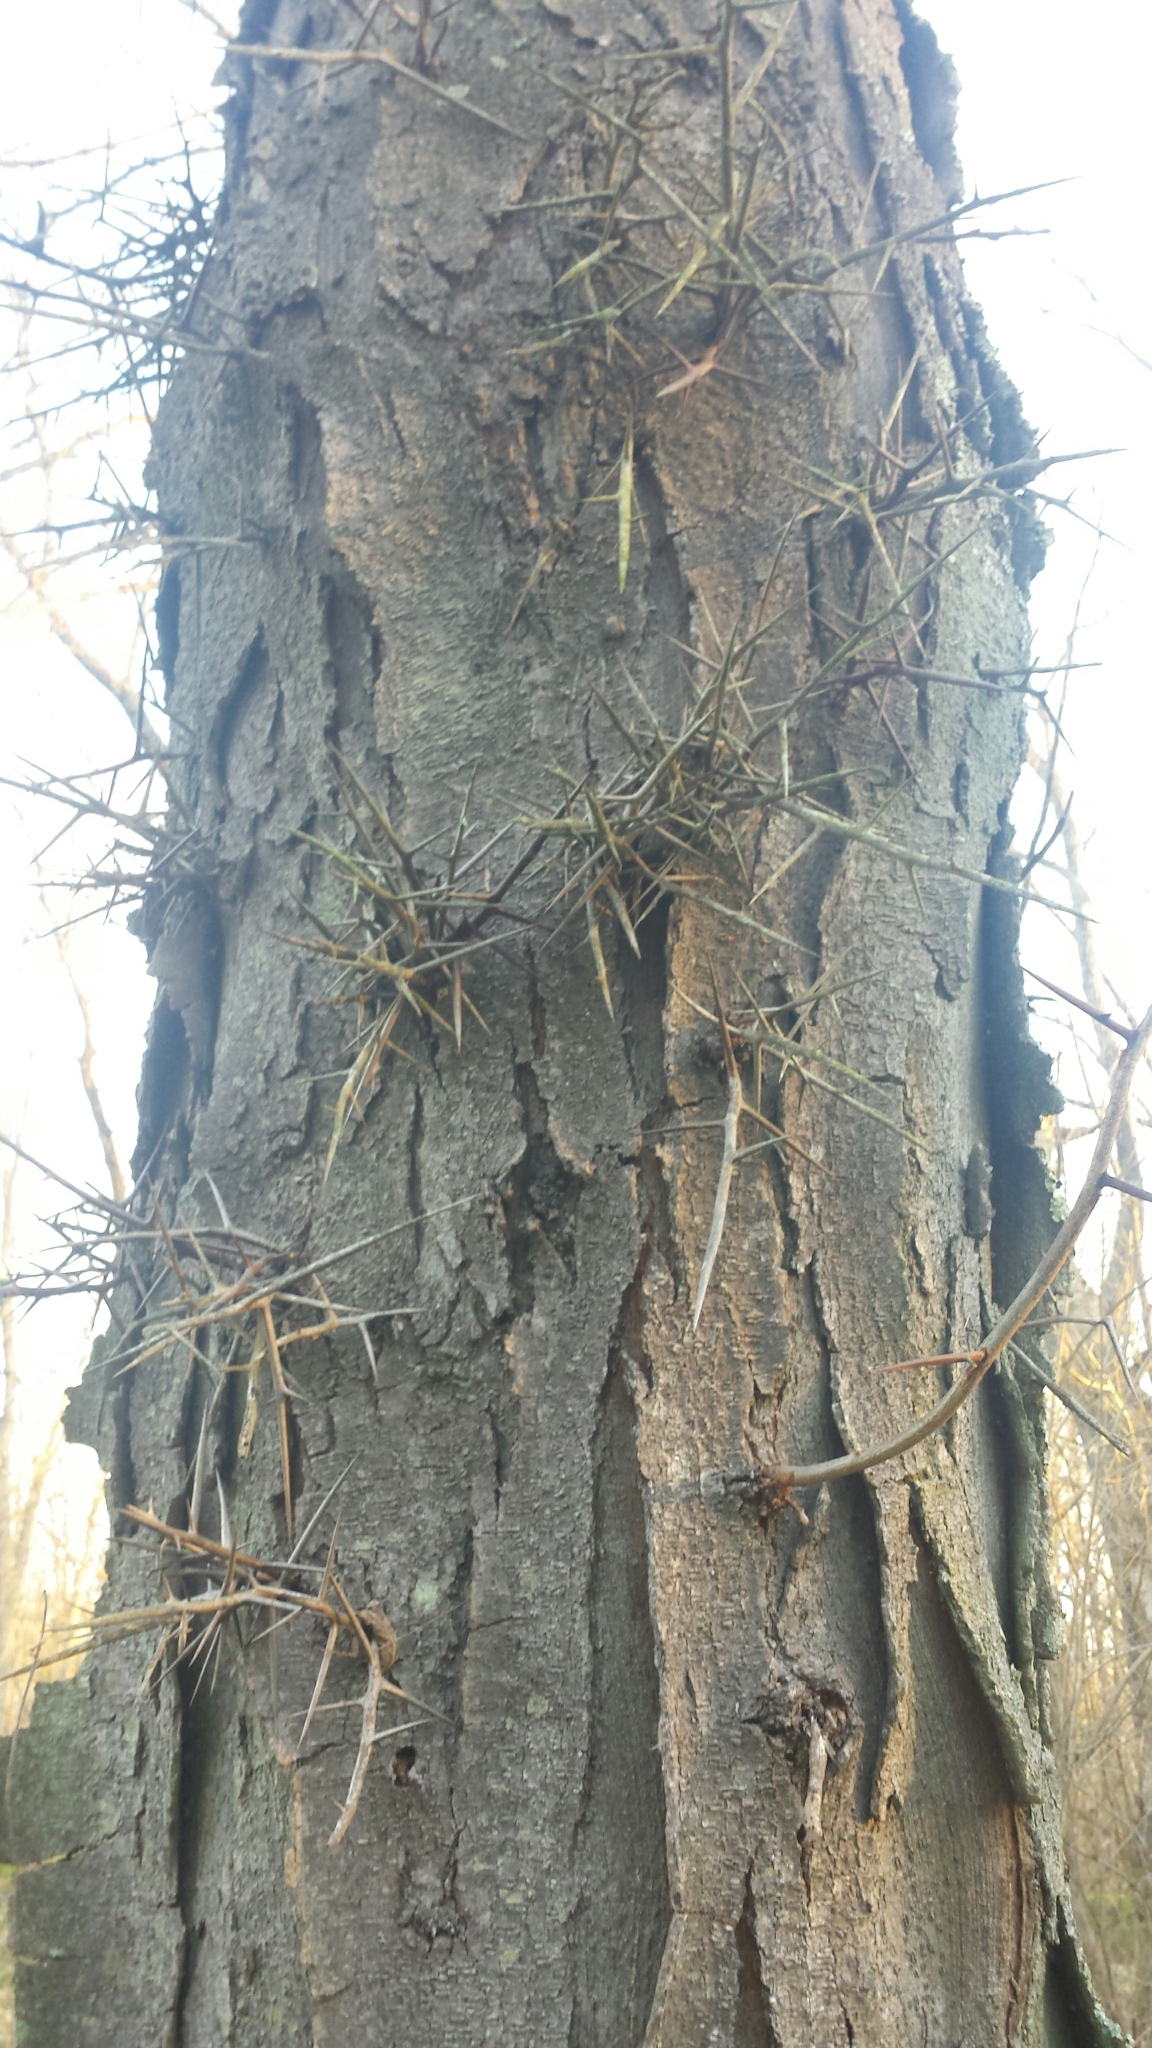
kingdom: Plantae
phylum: Tracheophyta
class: Magnoliopsida
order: Fabales
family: Fabaceae
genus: Gleditsia
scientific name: Gleditsia triacanthos
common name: Common honeylocust
